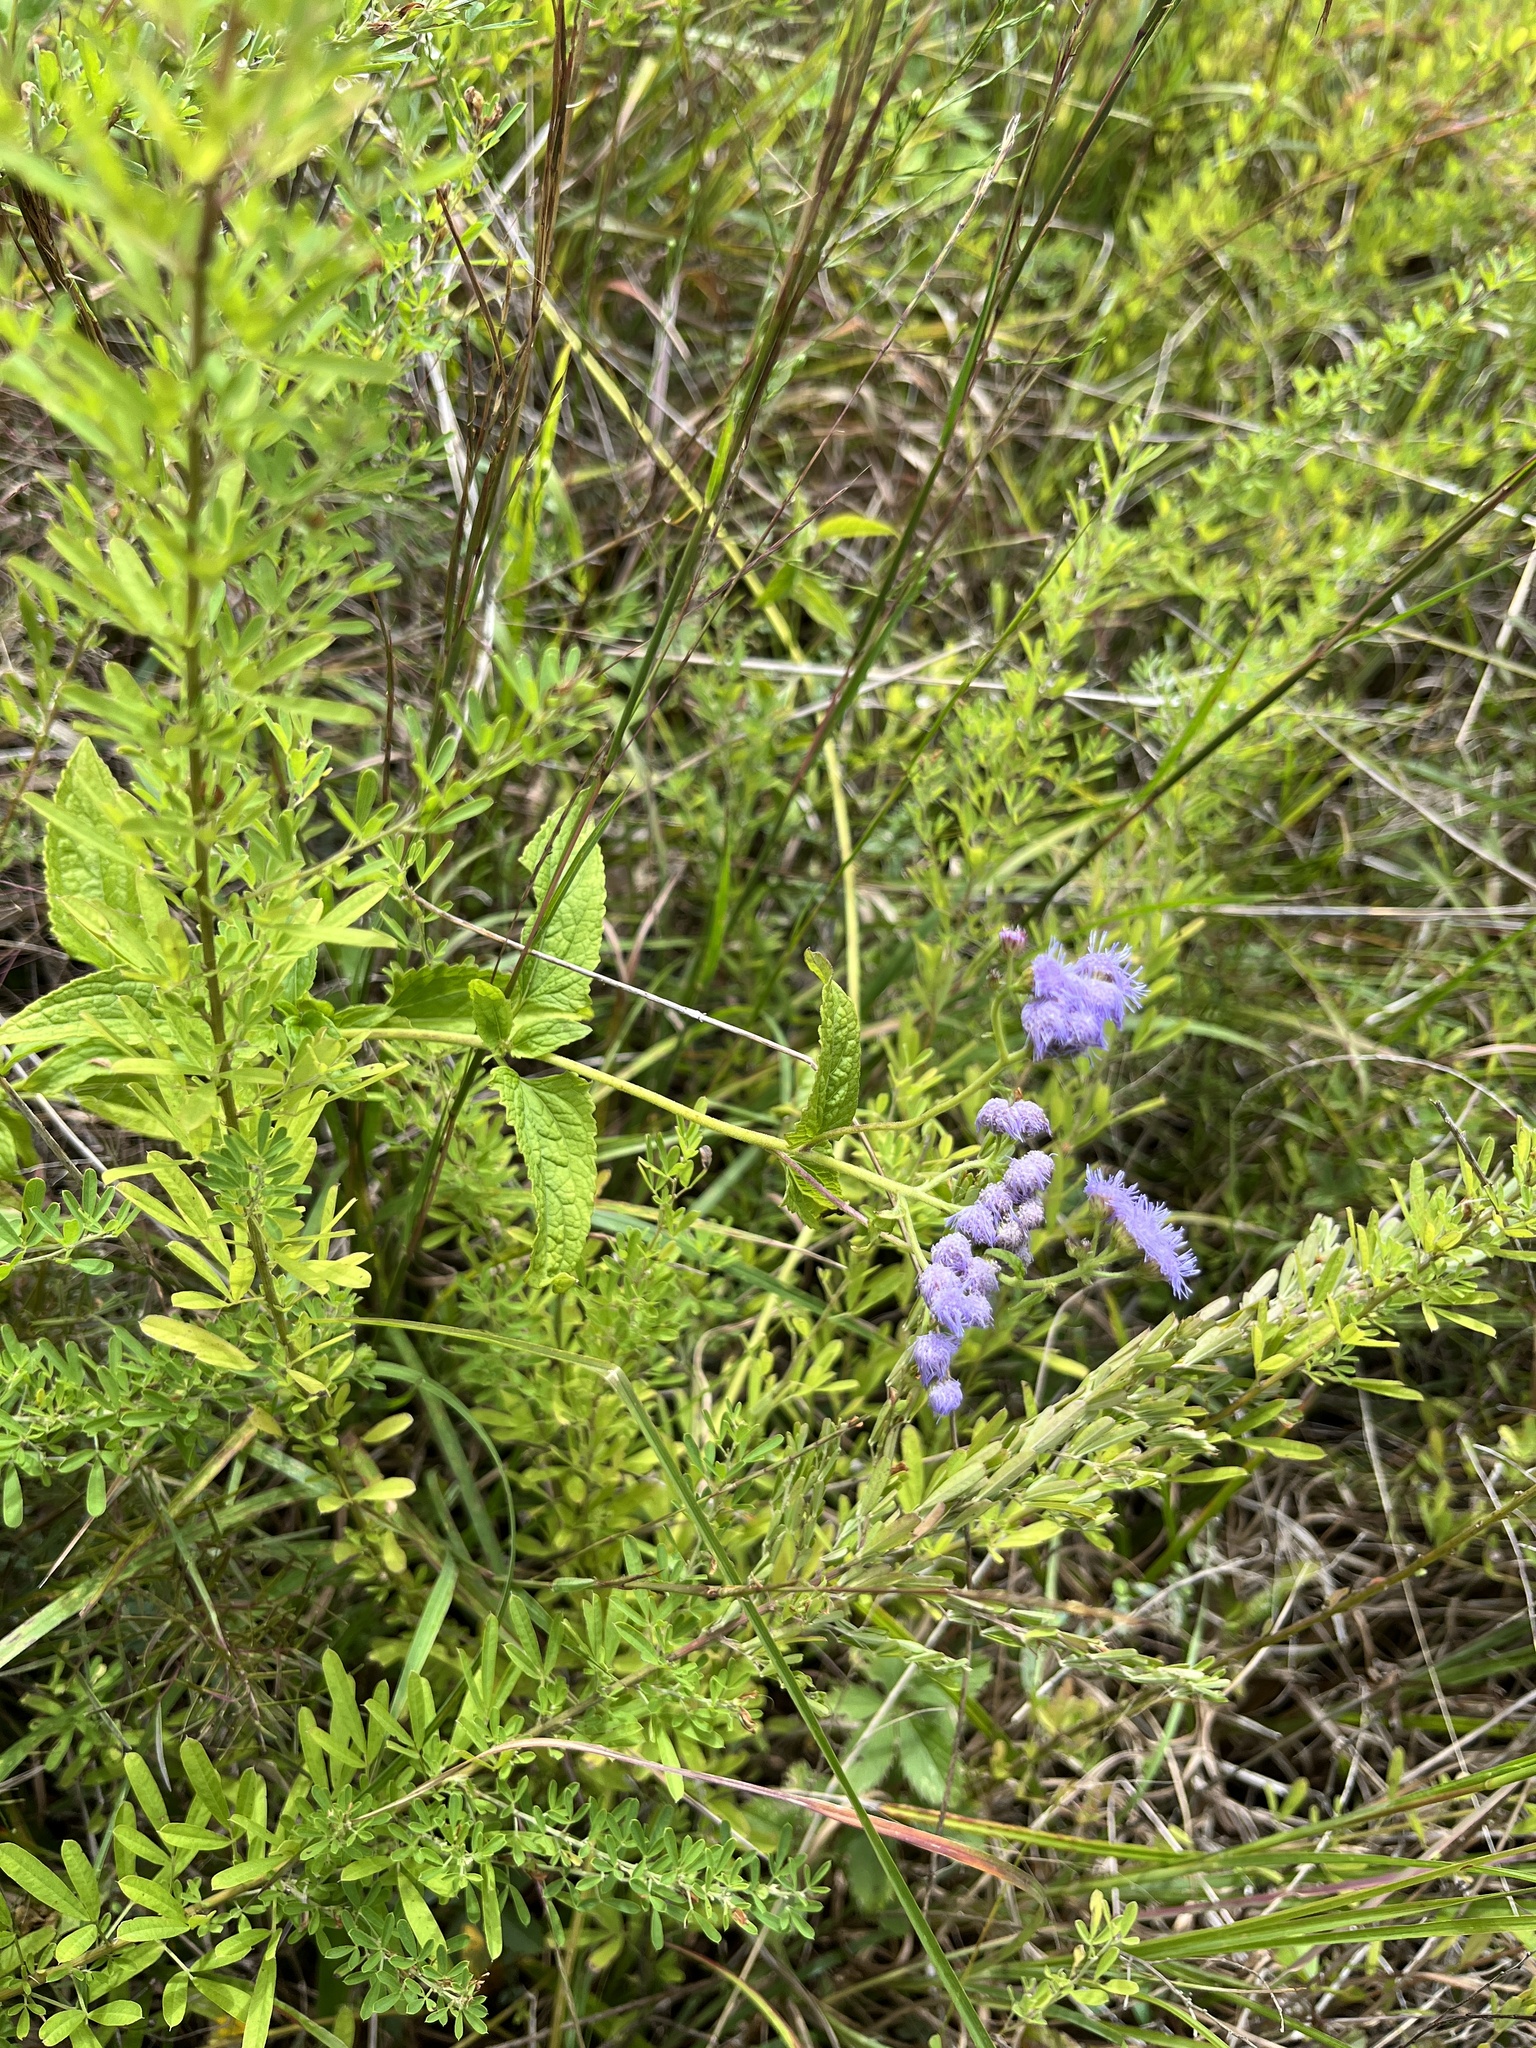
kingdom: Plantae
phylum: Tracheophyta
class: Magnoliopsida
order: Asterales
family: Asteraceae
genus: Conoclinium
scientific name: Conoclinium coelestinum
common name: Blue mistflower
